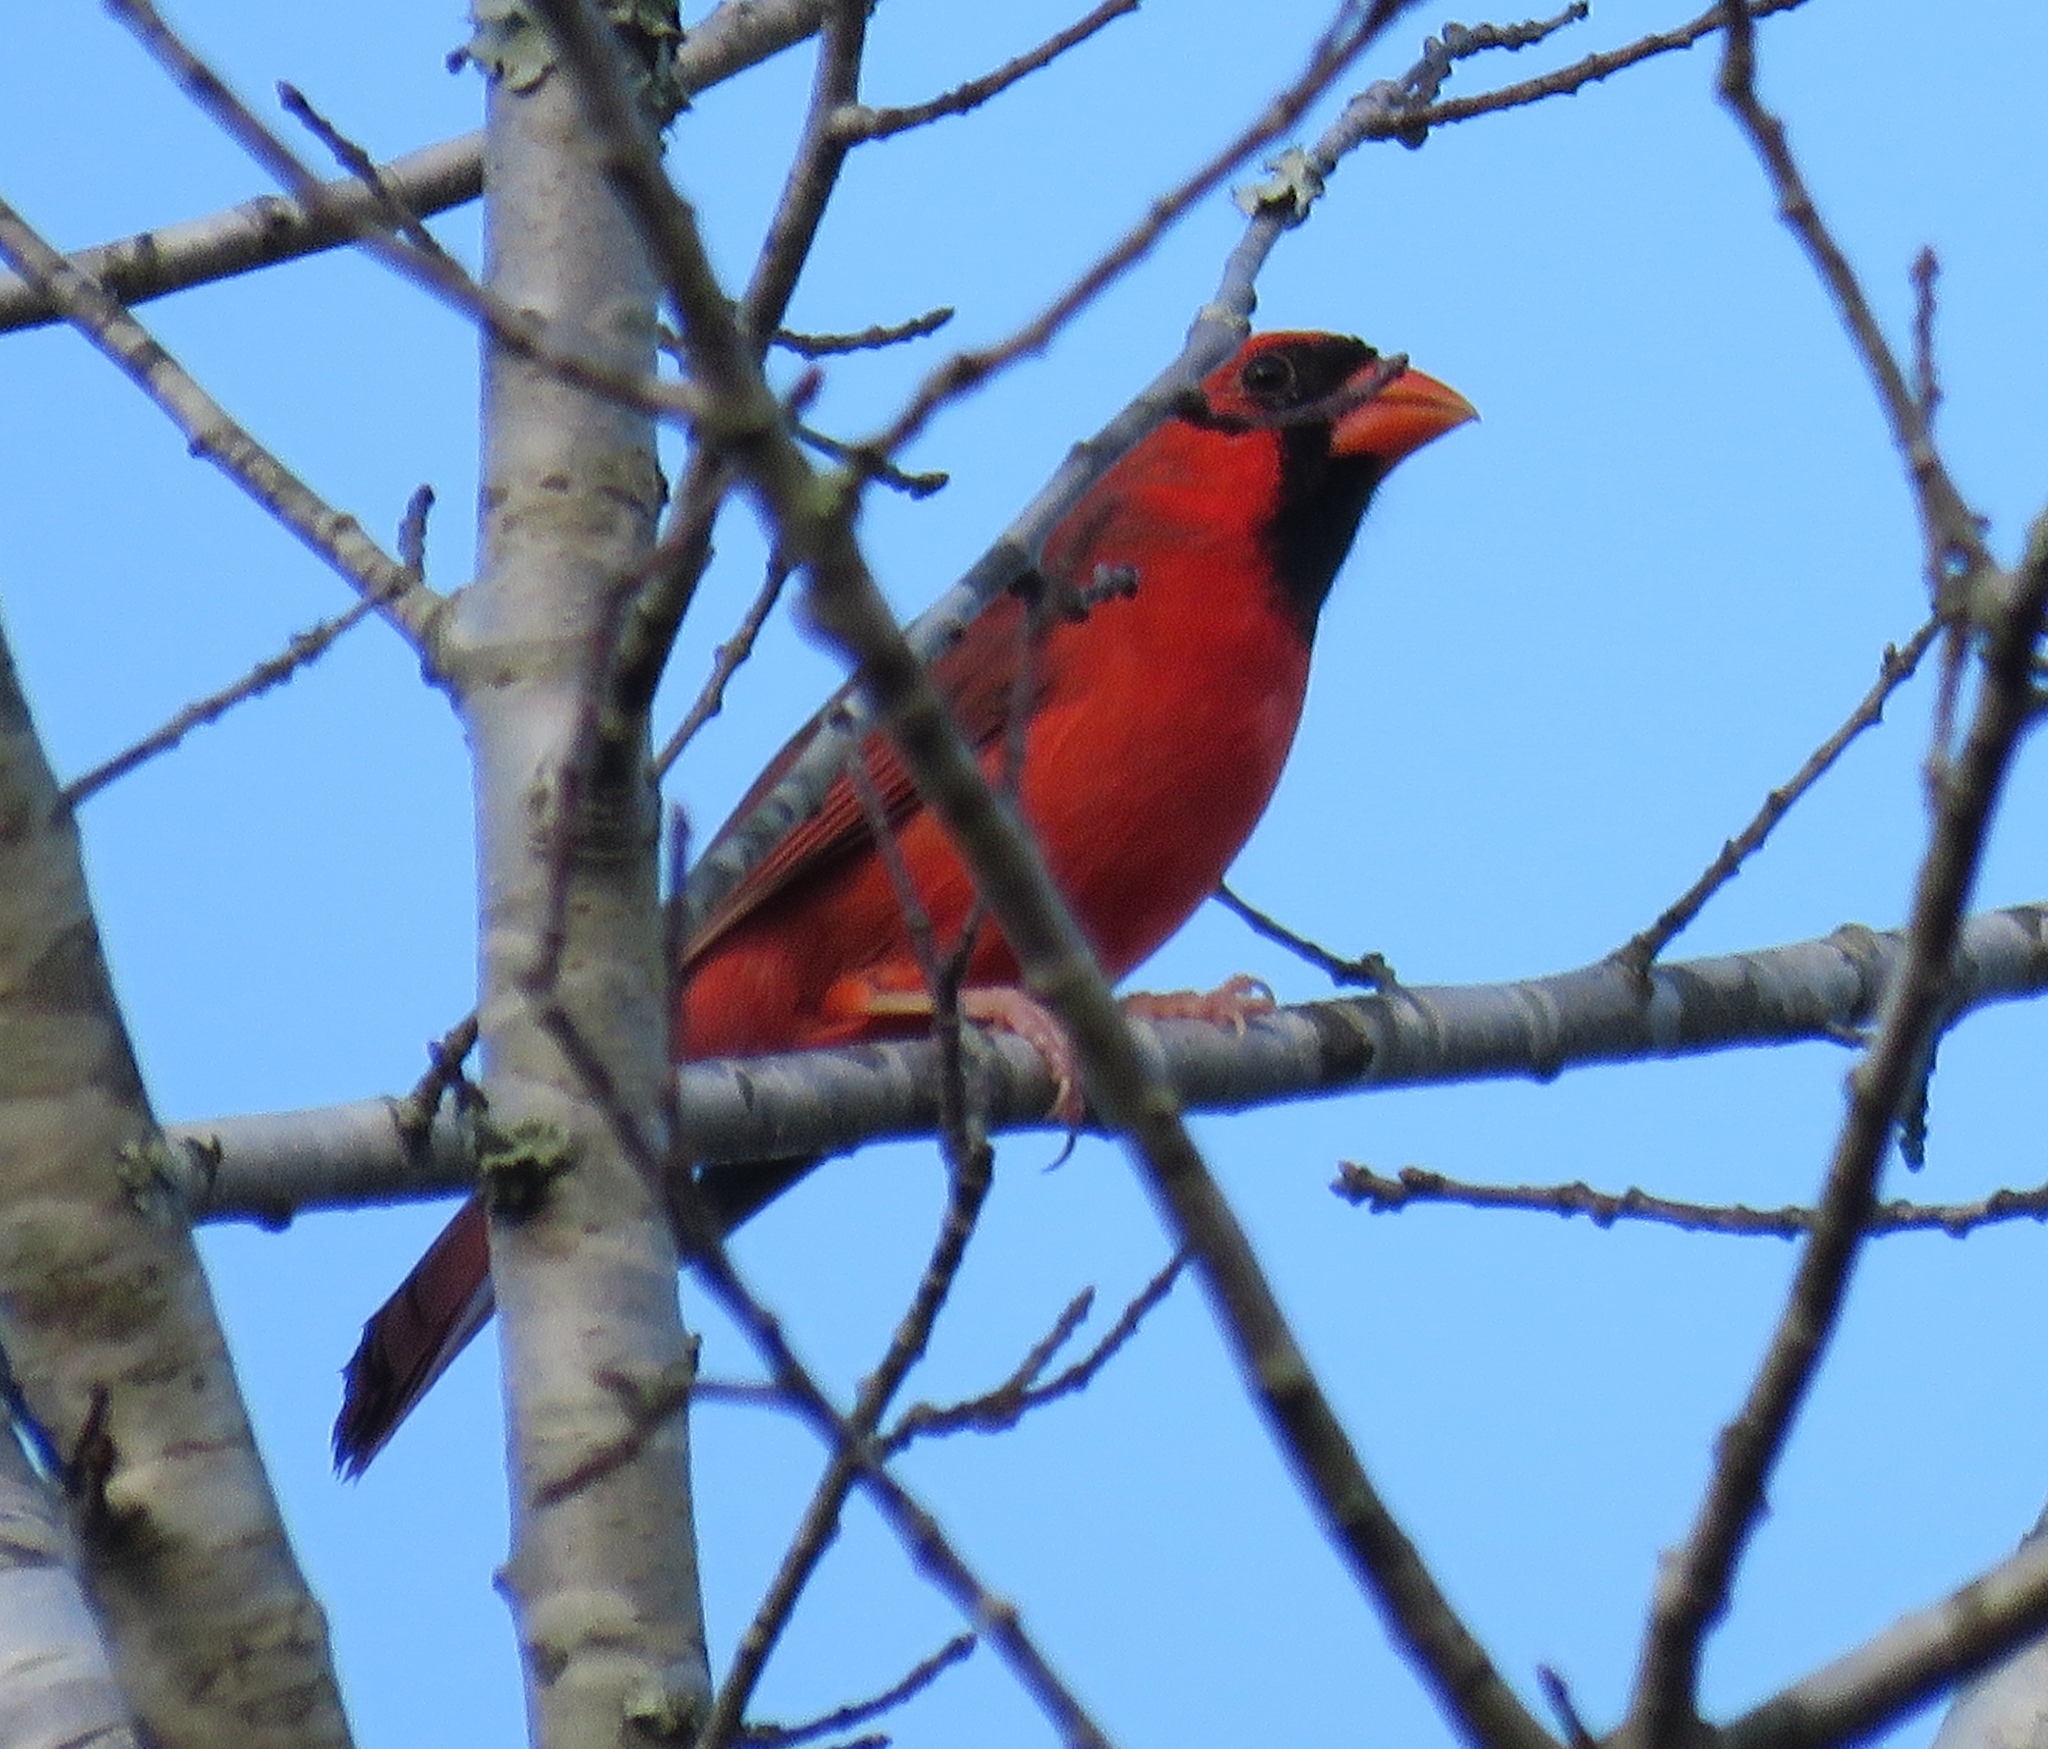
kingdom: Animalia
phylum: Chordata
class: Aves
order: Passeriformes
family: Cardinalidae
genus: Cardinalis
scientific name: Cardinalis cardinalis
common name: Northern cardinal
